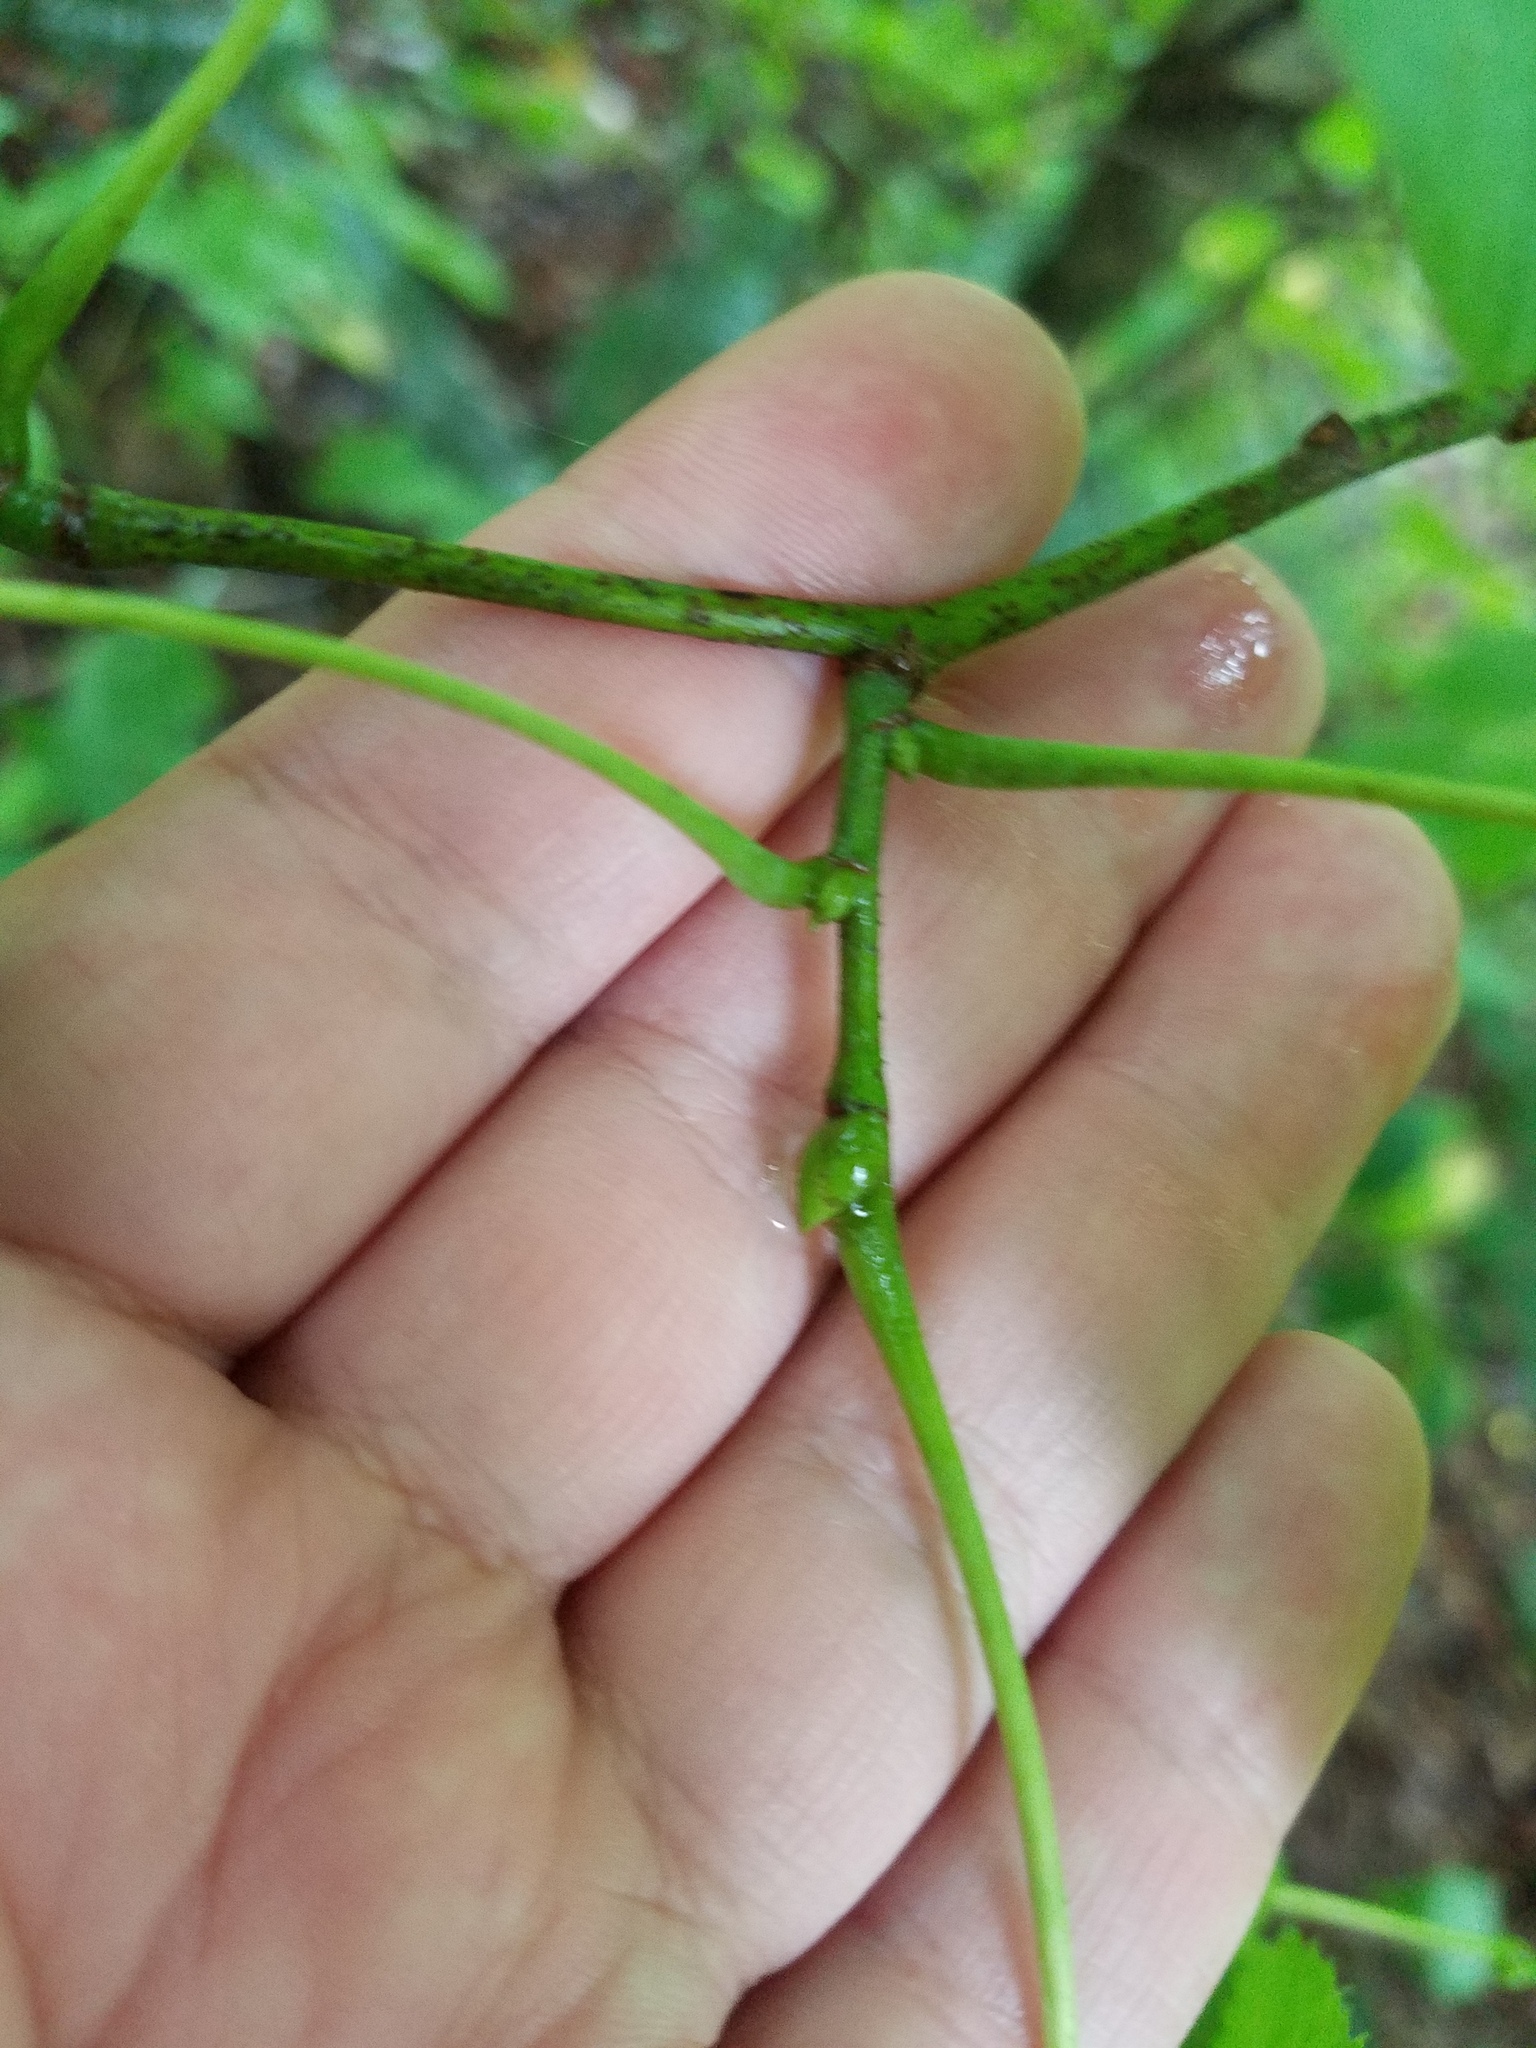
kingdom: Plantae
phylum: Tracheophyta
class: Magnoliopsida
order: Malvales
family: Malvaceae
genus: Tilia
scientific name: Tilia americana
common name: Basswood
